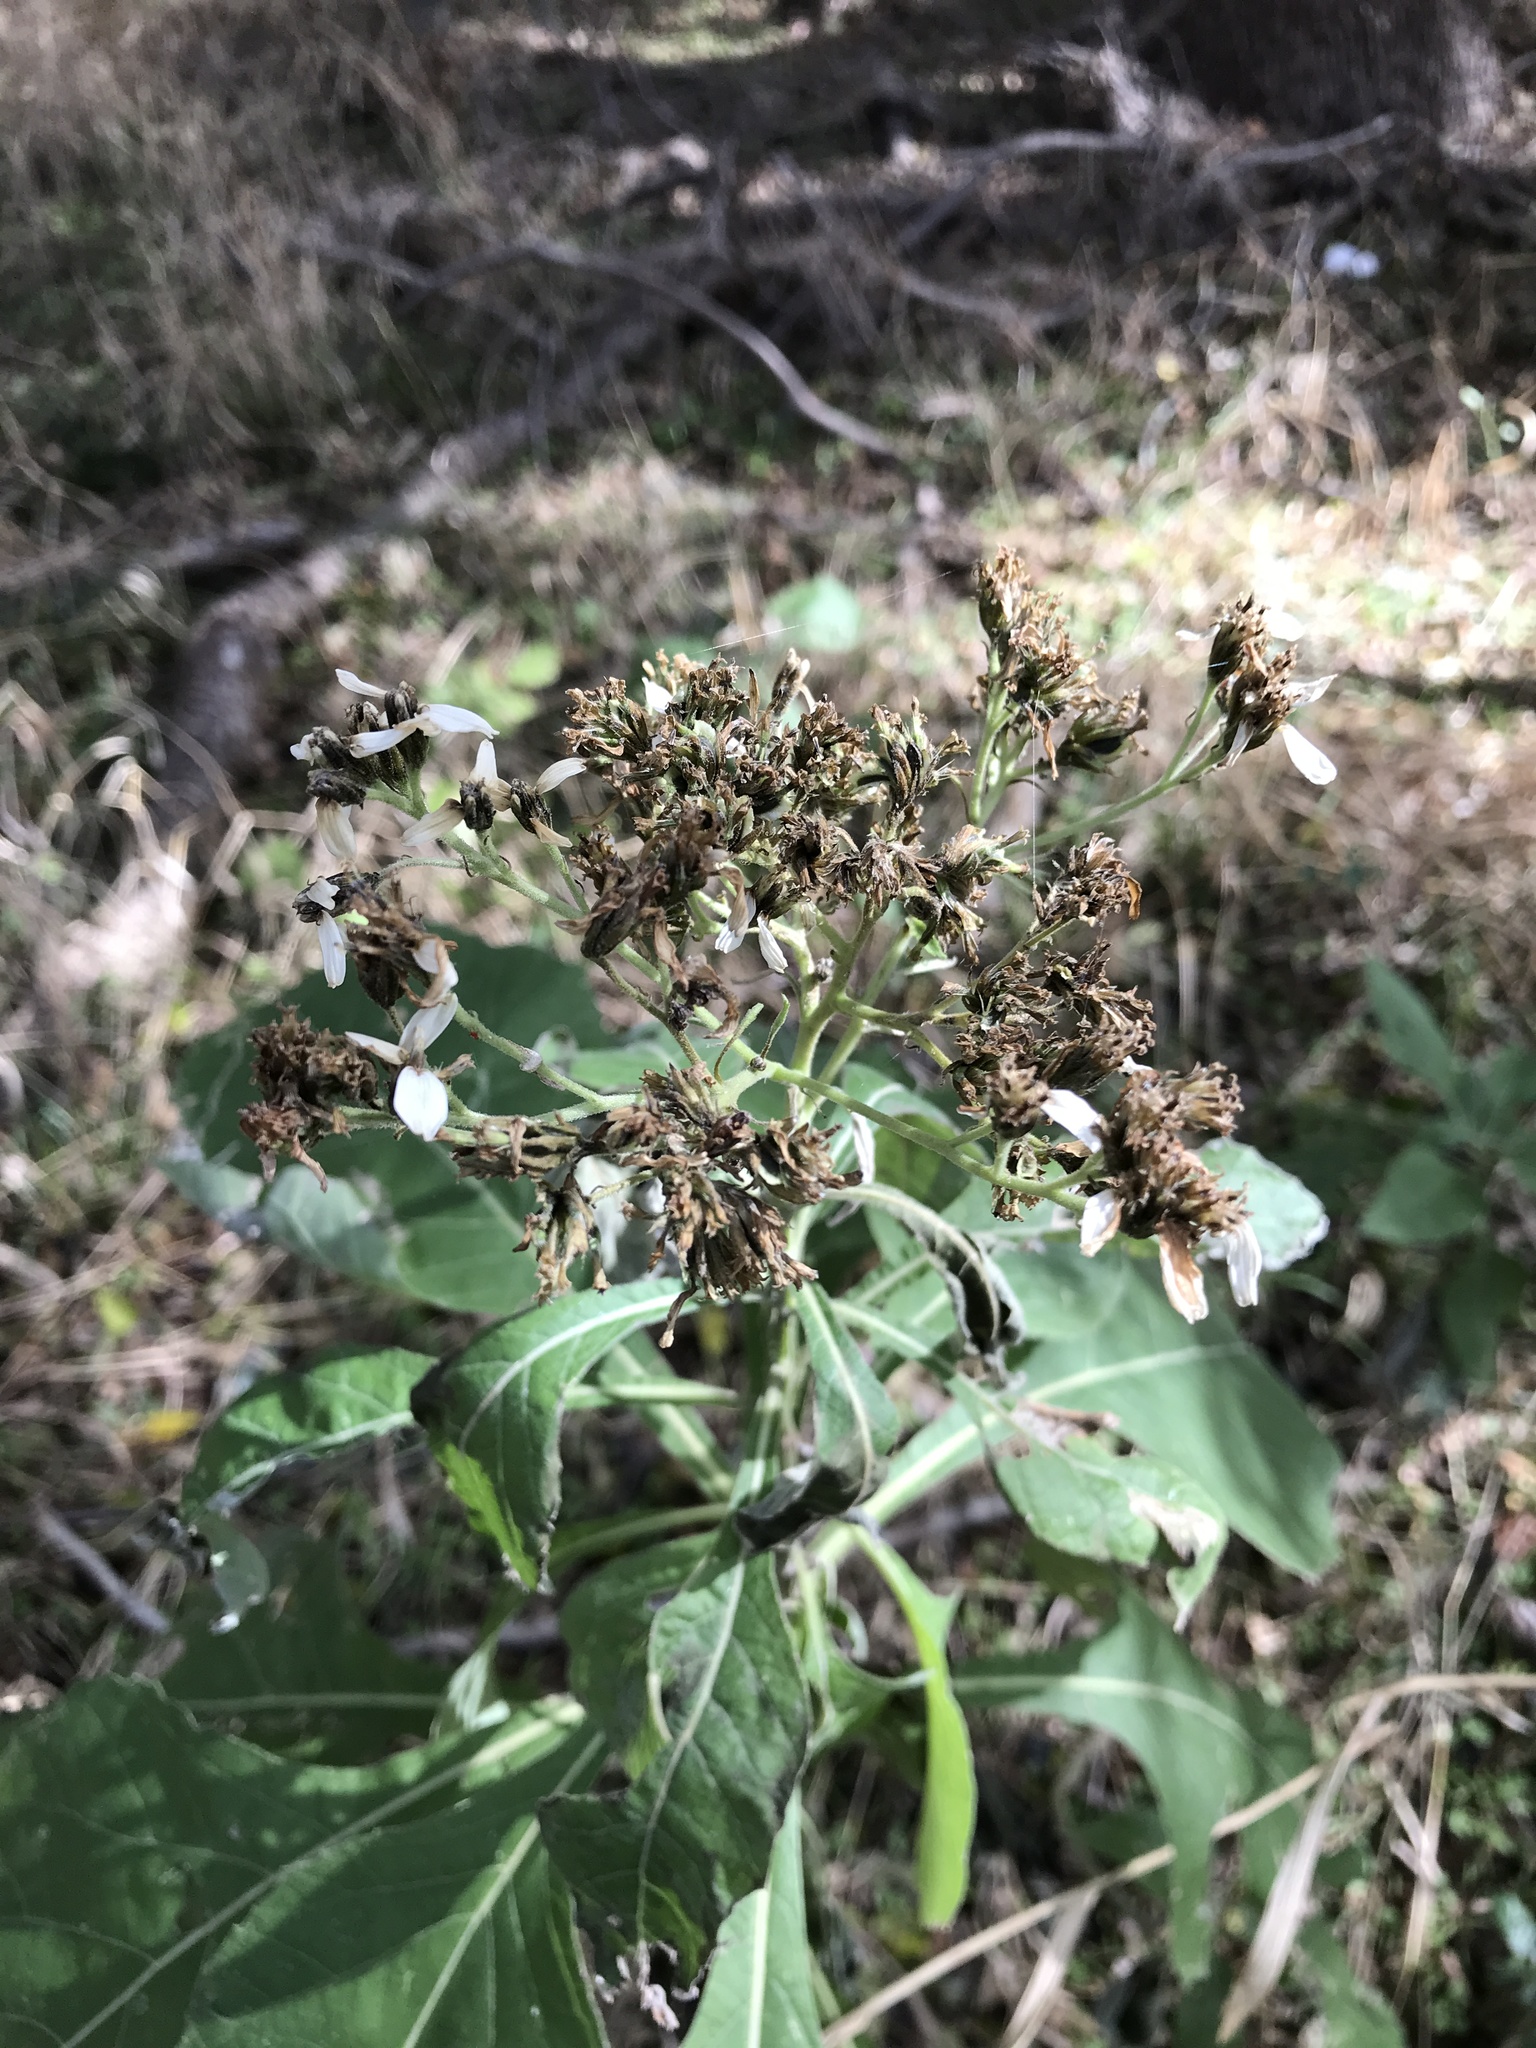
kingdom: Plantae
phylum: Tracheophyta
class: Magnoliopsida
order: Asterales
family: Asteraceae
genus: Verbesina
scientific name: Verbesina virginica
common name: Frostweed
